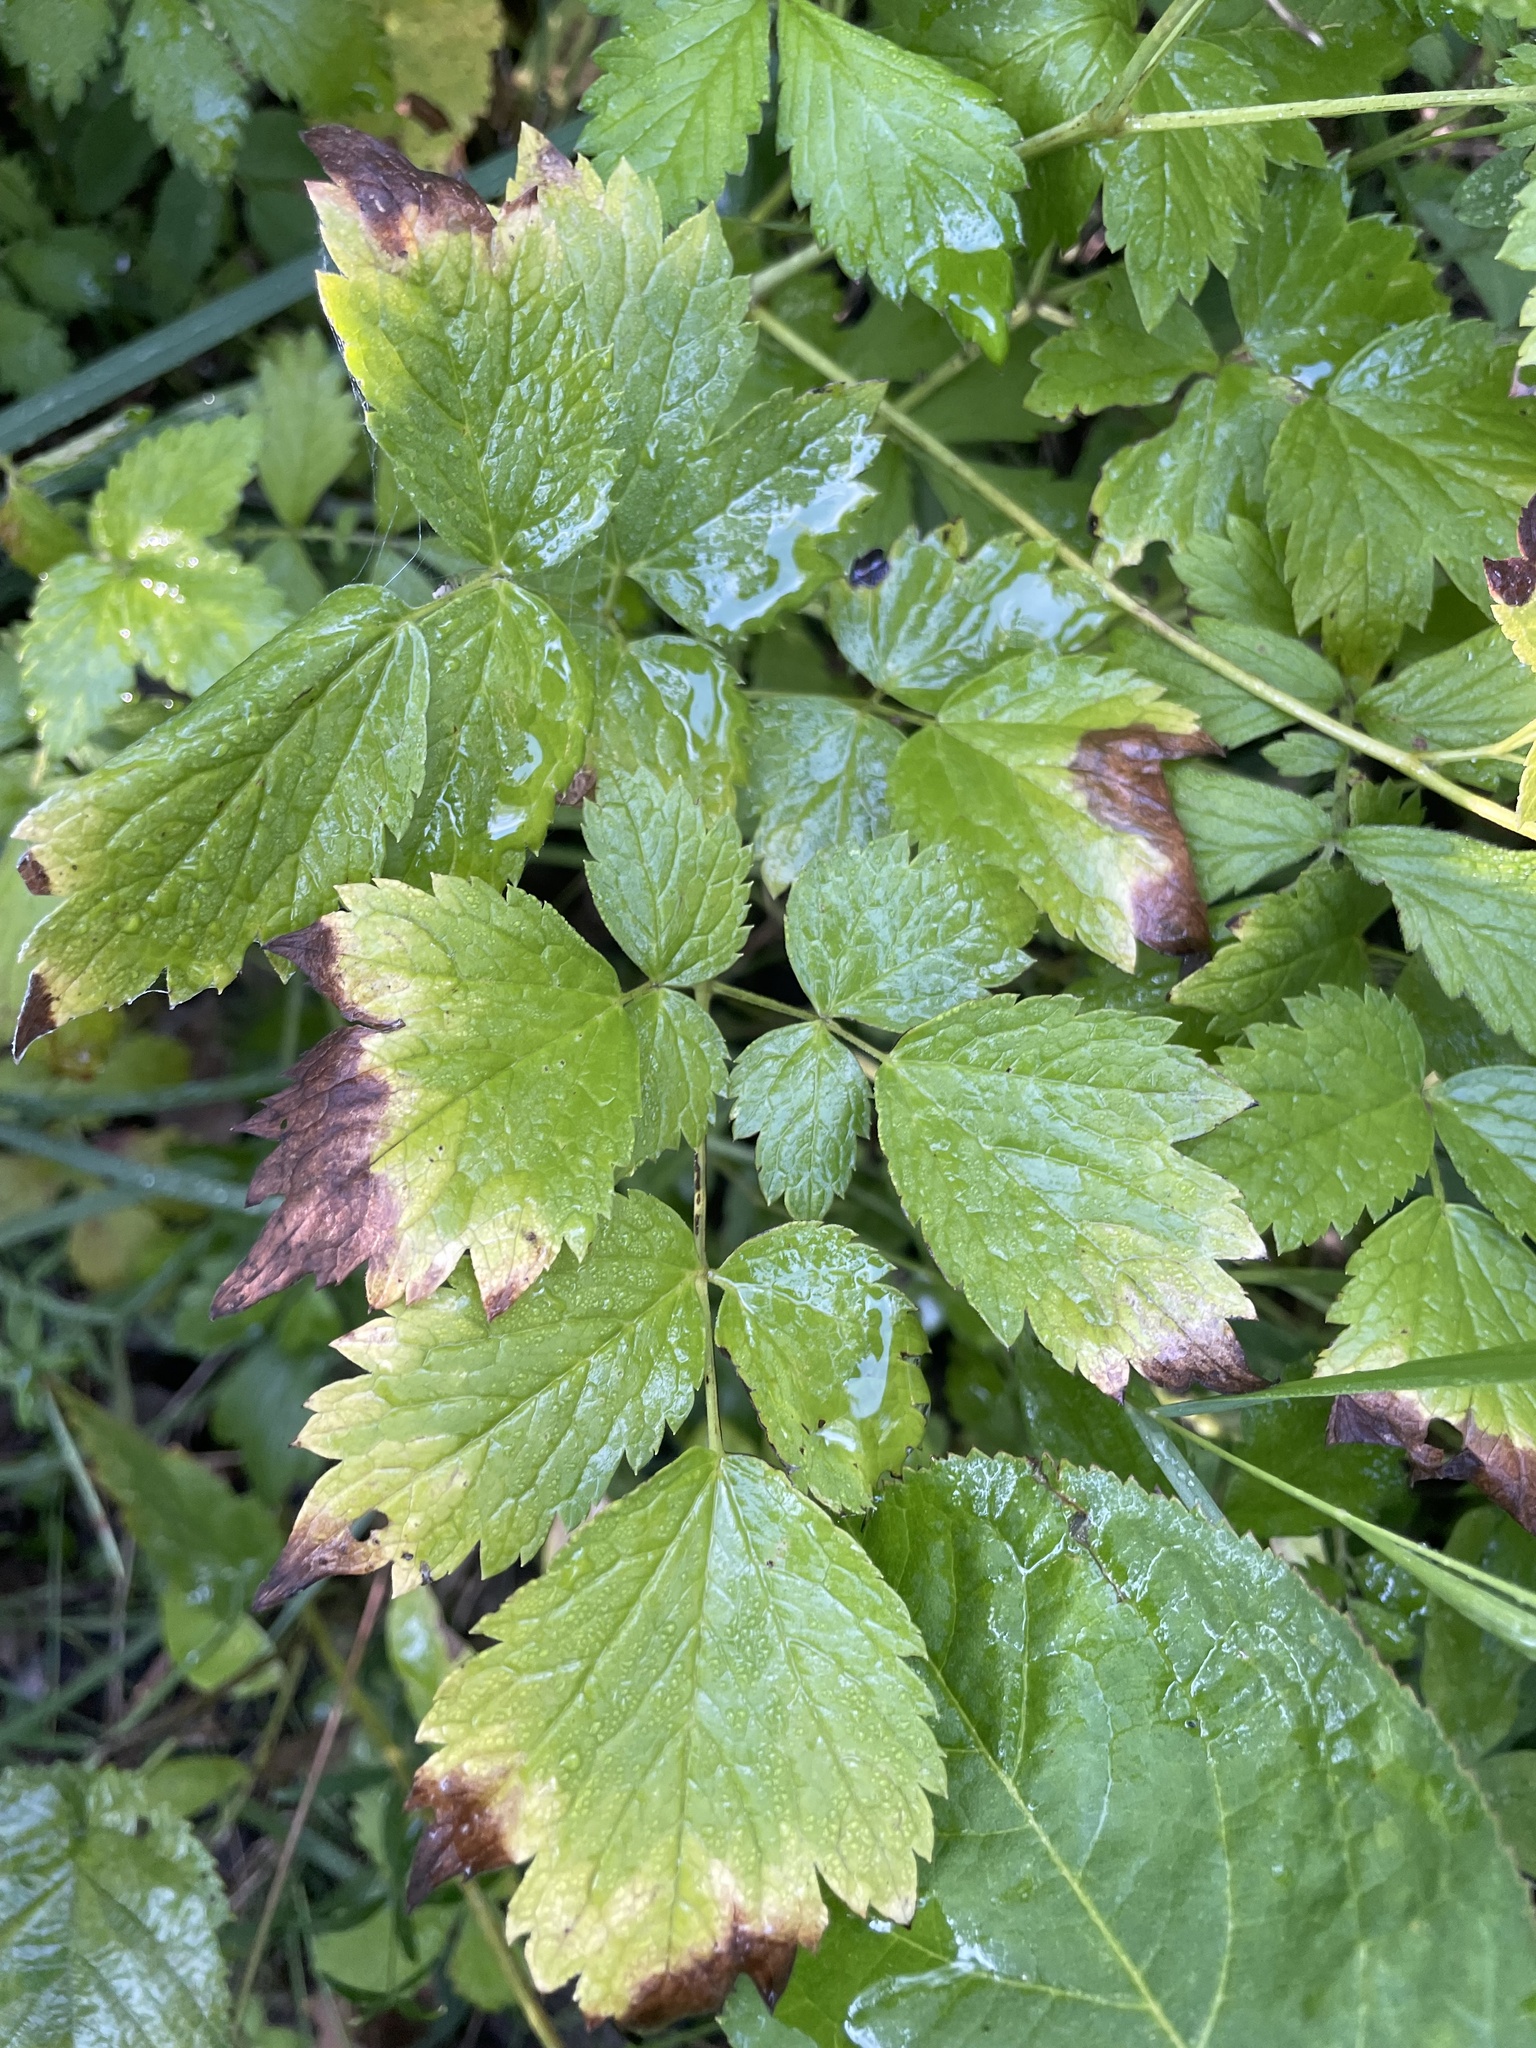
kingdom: Plantae
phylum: Tracheophyta
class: Magnoliopsida
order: Ranunculales
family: Ranunculaceae
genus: Actaea
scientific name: Actaea rubra
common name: Red baneberry
